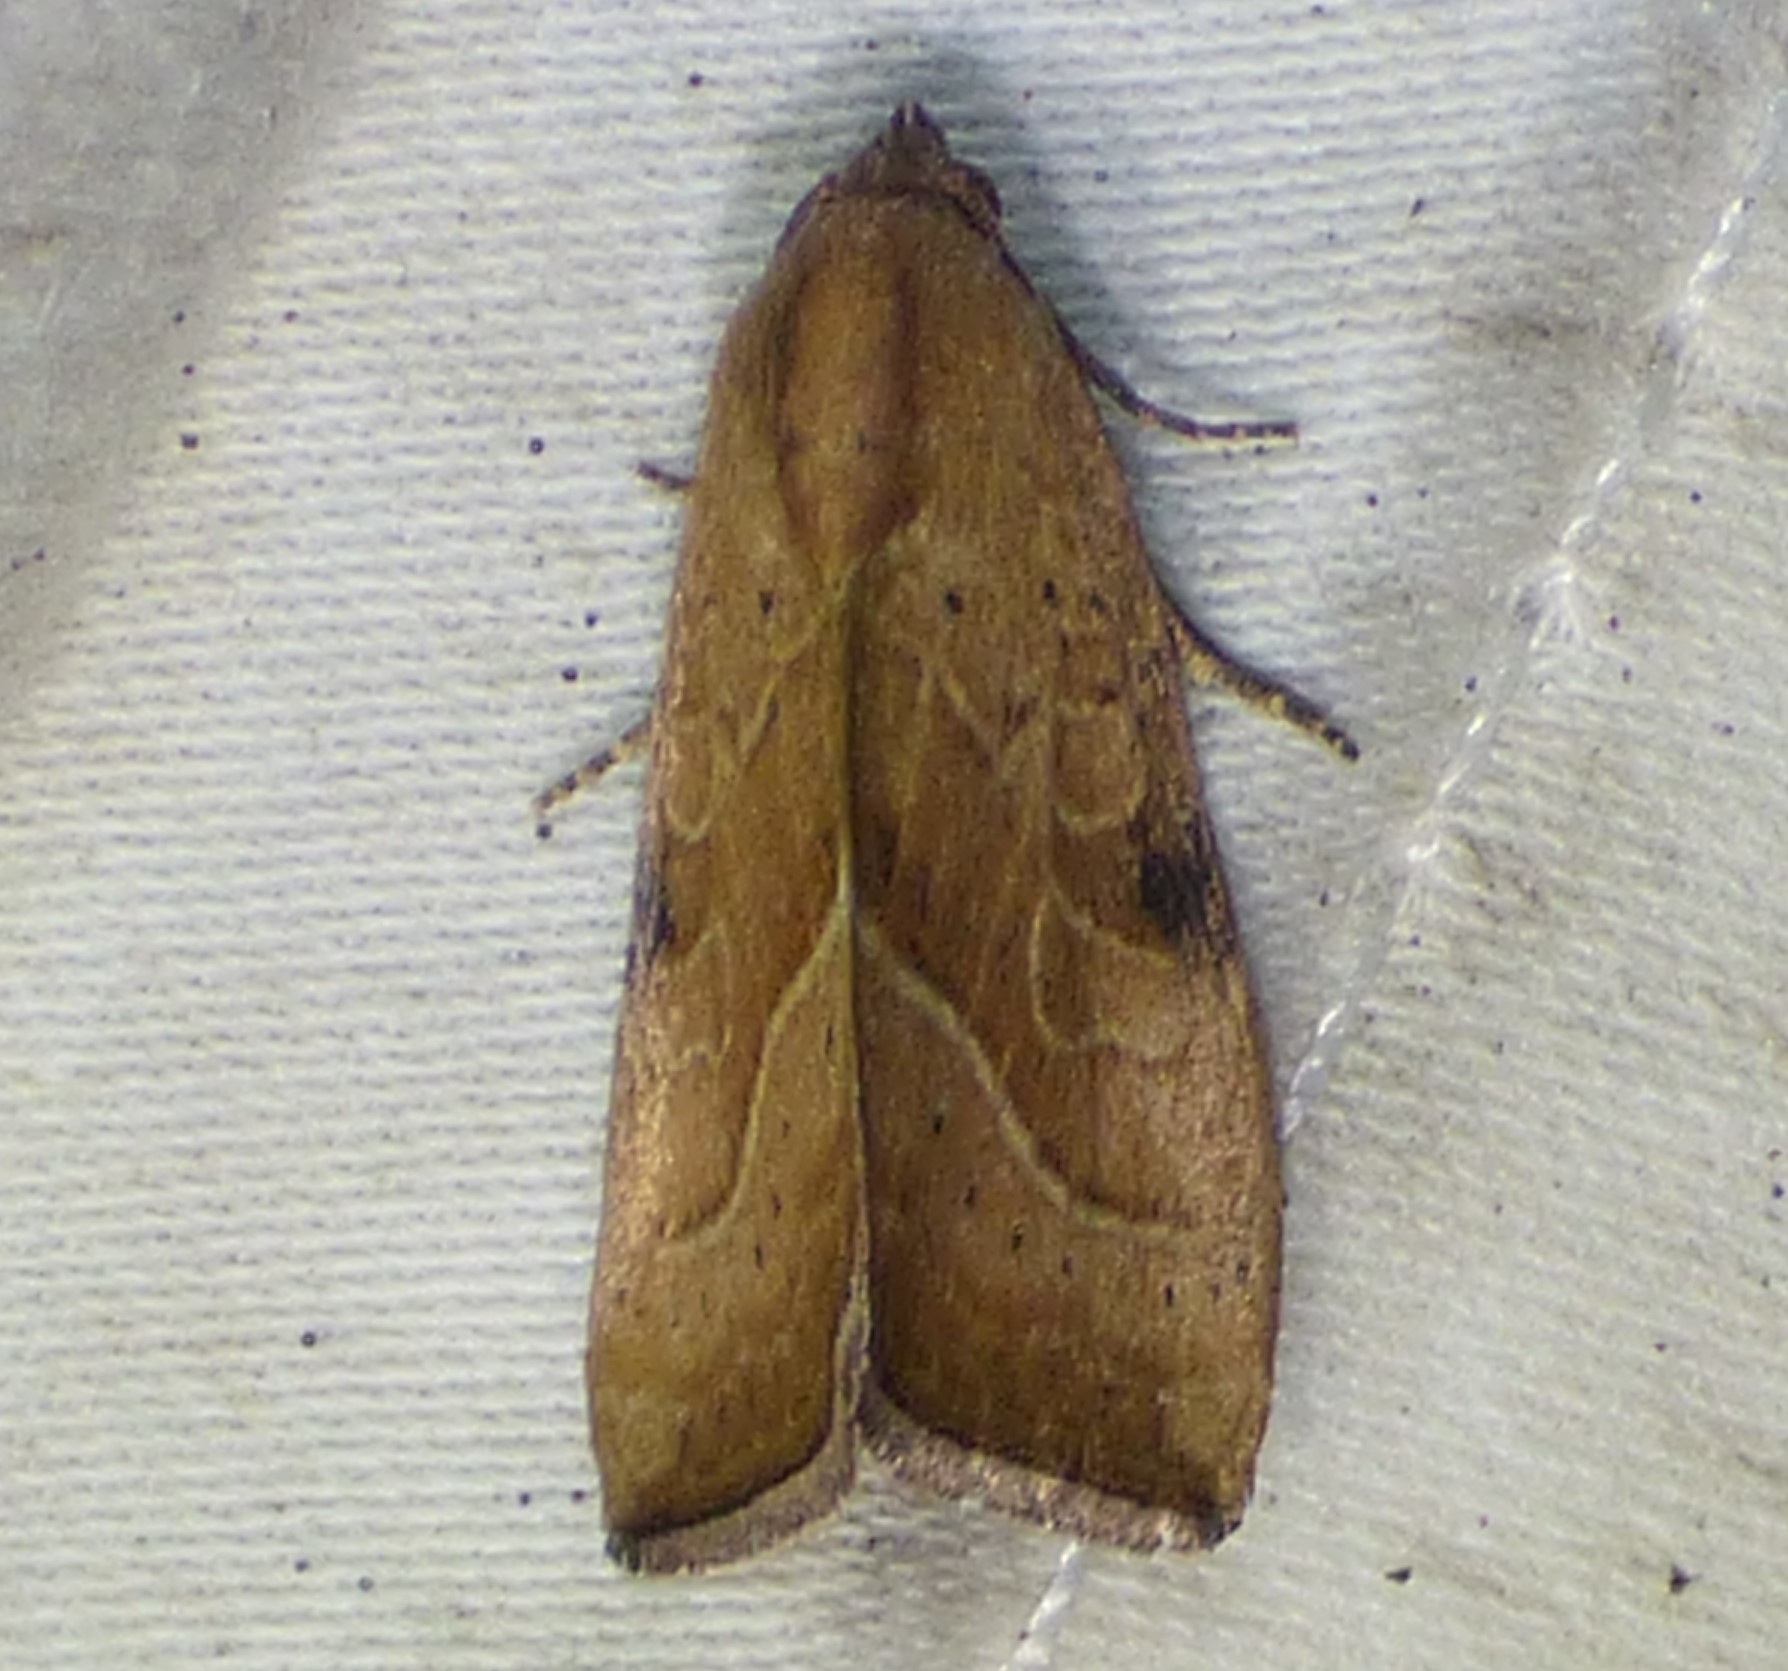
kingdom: Animalia
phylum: Arthropoda
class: Insecta
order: Lepidoptera
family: Noctuidae
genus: Galgula
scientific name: Galgula partita
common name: Wedgeling
